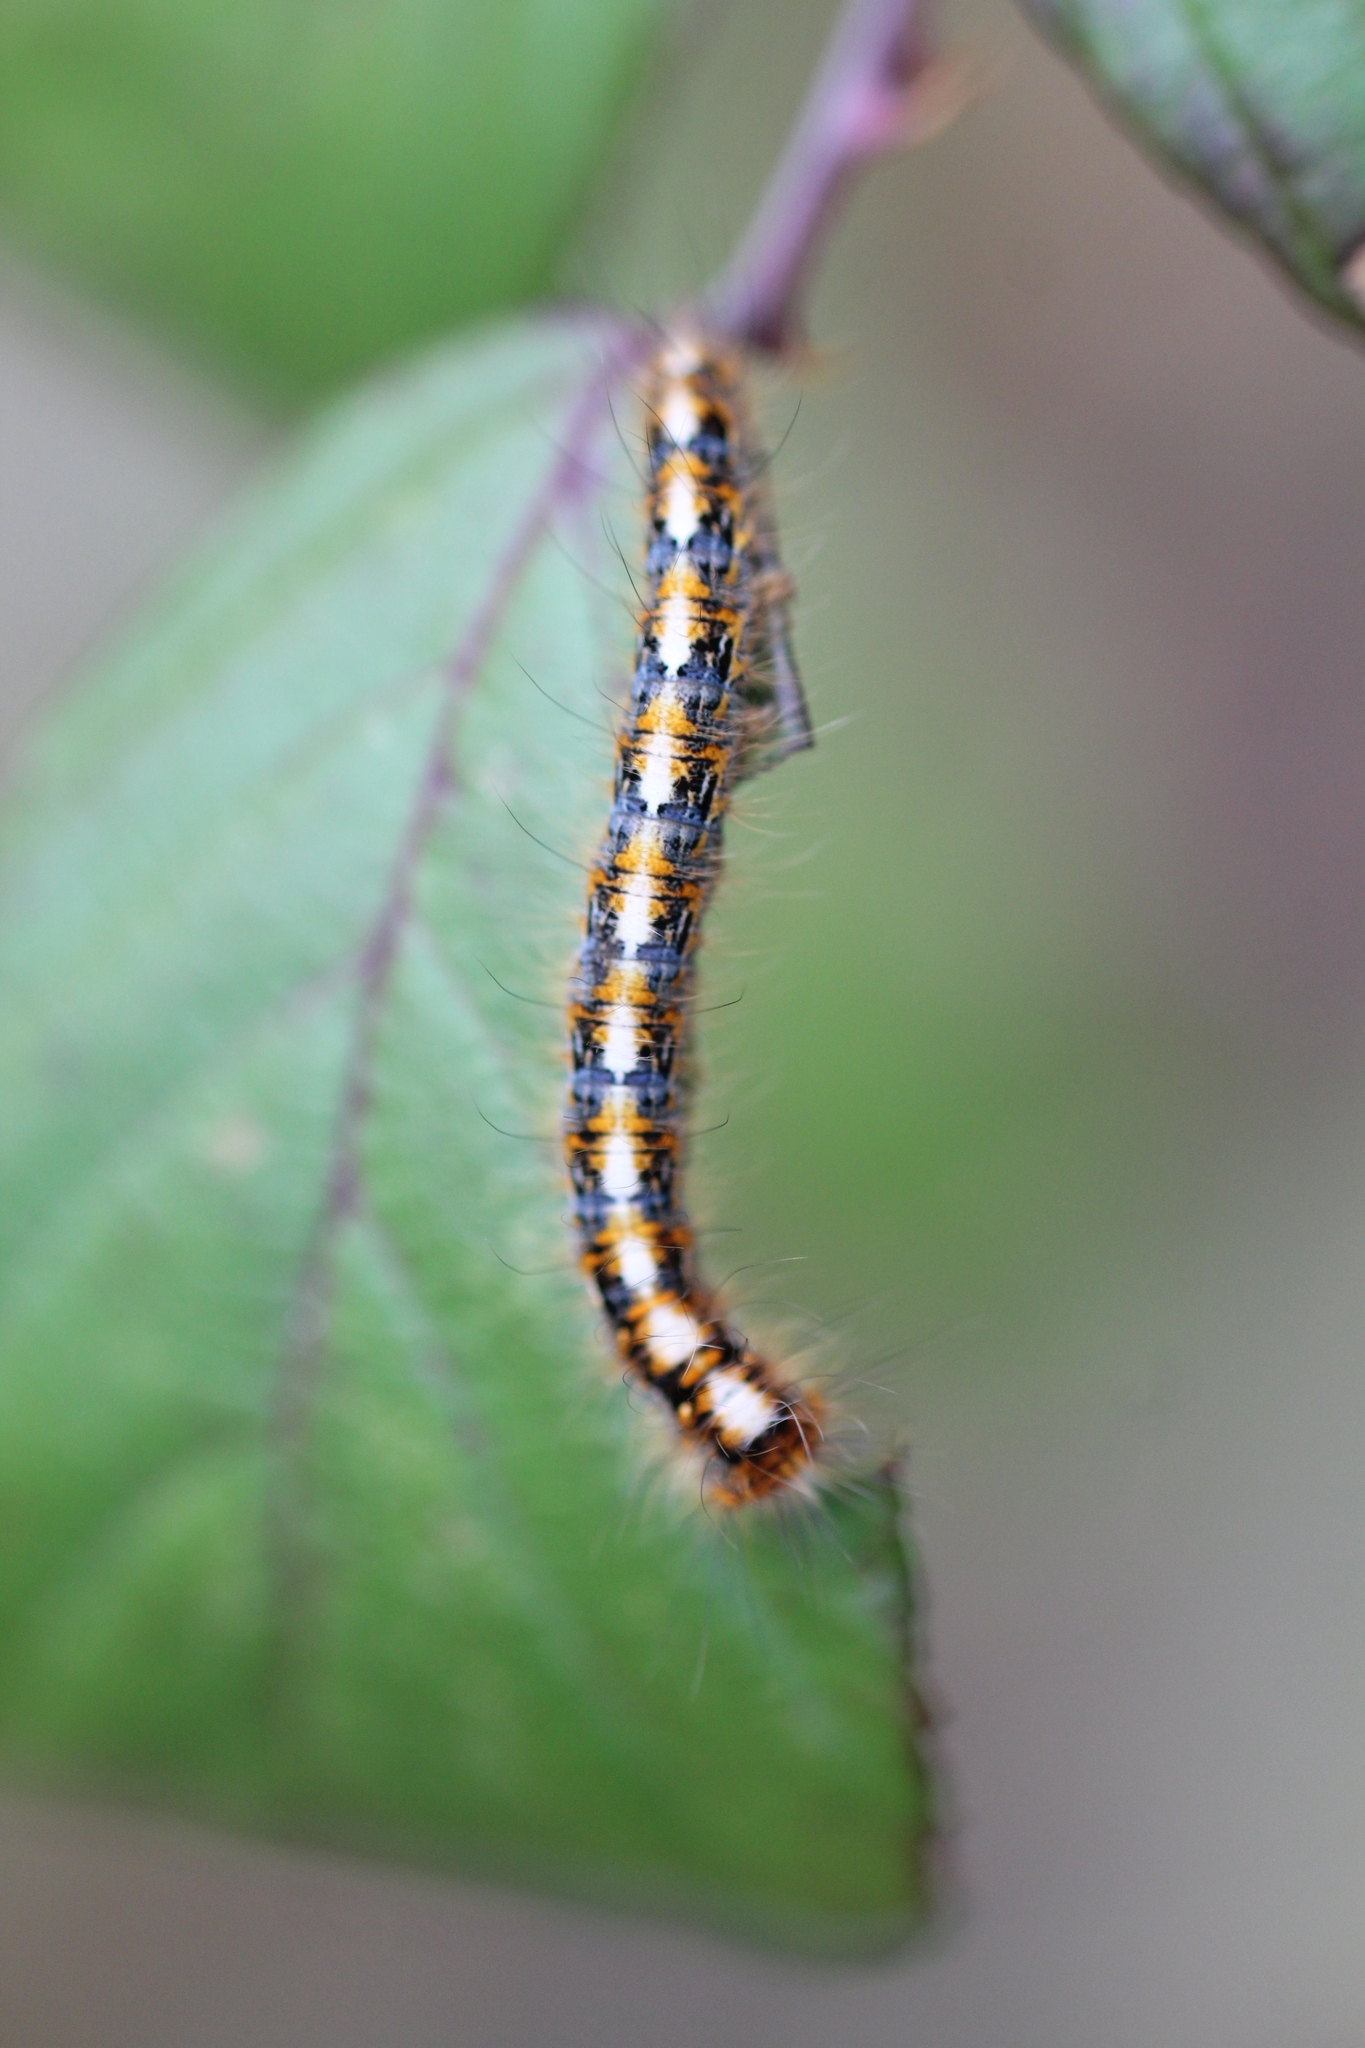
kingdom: Animalia
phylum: Arthropoda
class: Insecta
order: Lepidoptera
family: Lasiocampidae
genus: Lasiocampa
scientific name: Lasiocampa quercus
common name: Oak eggar
